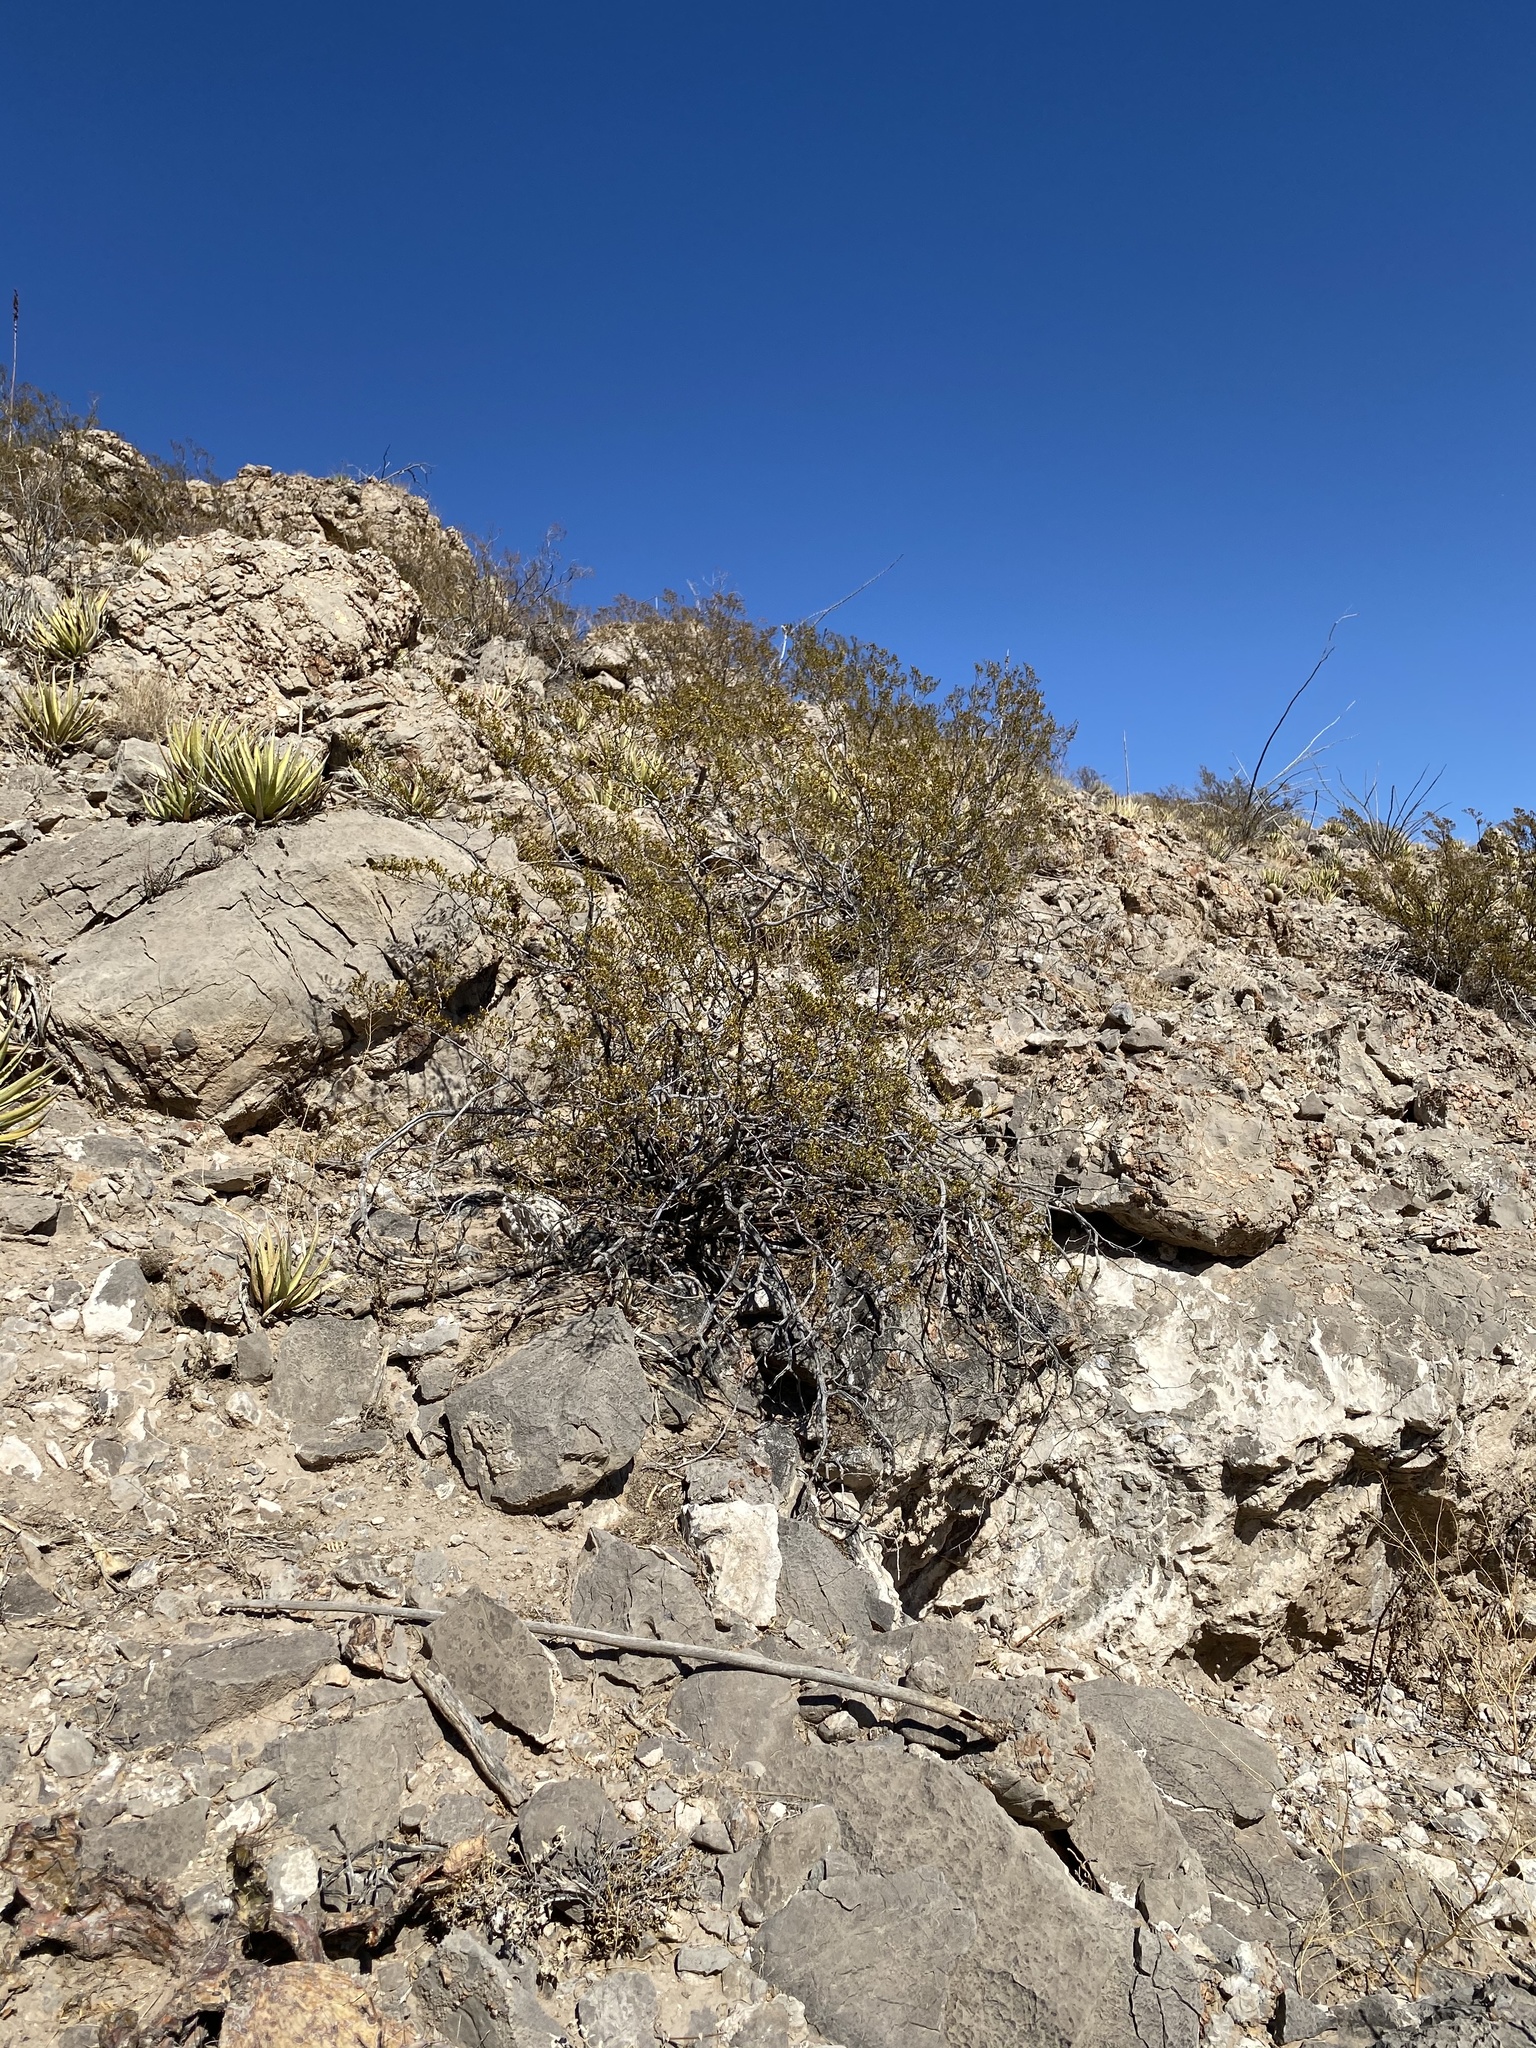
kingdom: Plantae
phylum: Tracheophyta
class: Magnoliopsida
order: Zygophyllales
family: Zygophyllaceae
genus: Larrea
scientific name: Larrea tridentata
